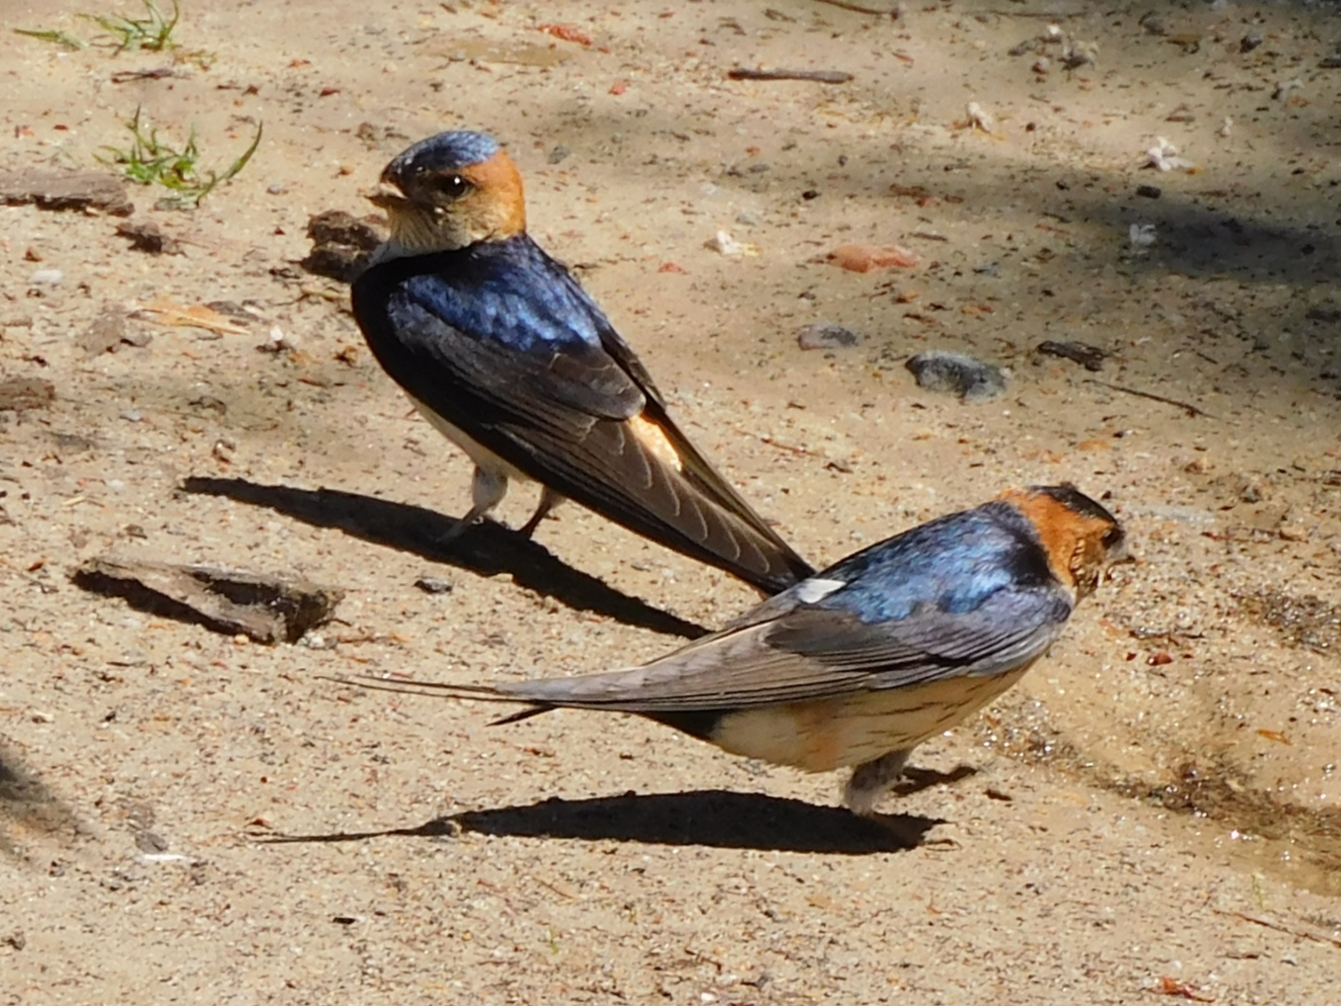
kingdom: Animalia
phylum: Chordata
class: Aves
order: Passeriformes
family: Hirundinidae
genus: Cecropis
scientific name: Cecropis daurica
